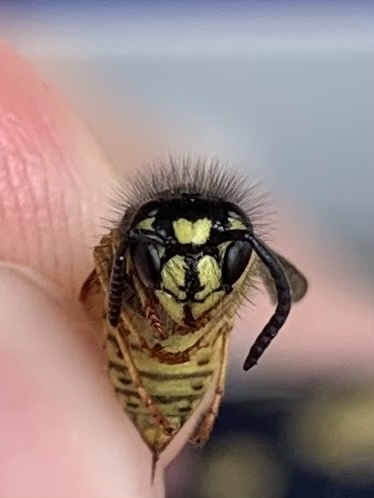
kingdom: Animalia
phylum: Arthropoda
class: Insecta
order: Hymenoptera
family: Vespidae
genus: Vespula
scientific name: Vespula vulgaris
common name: Common wasp
